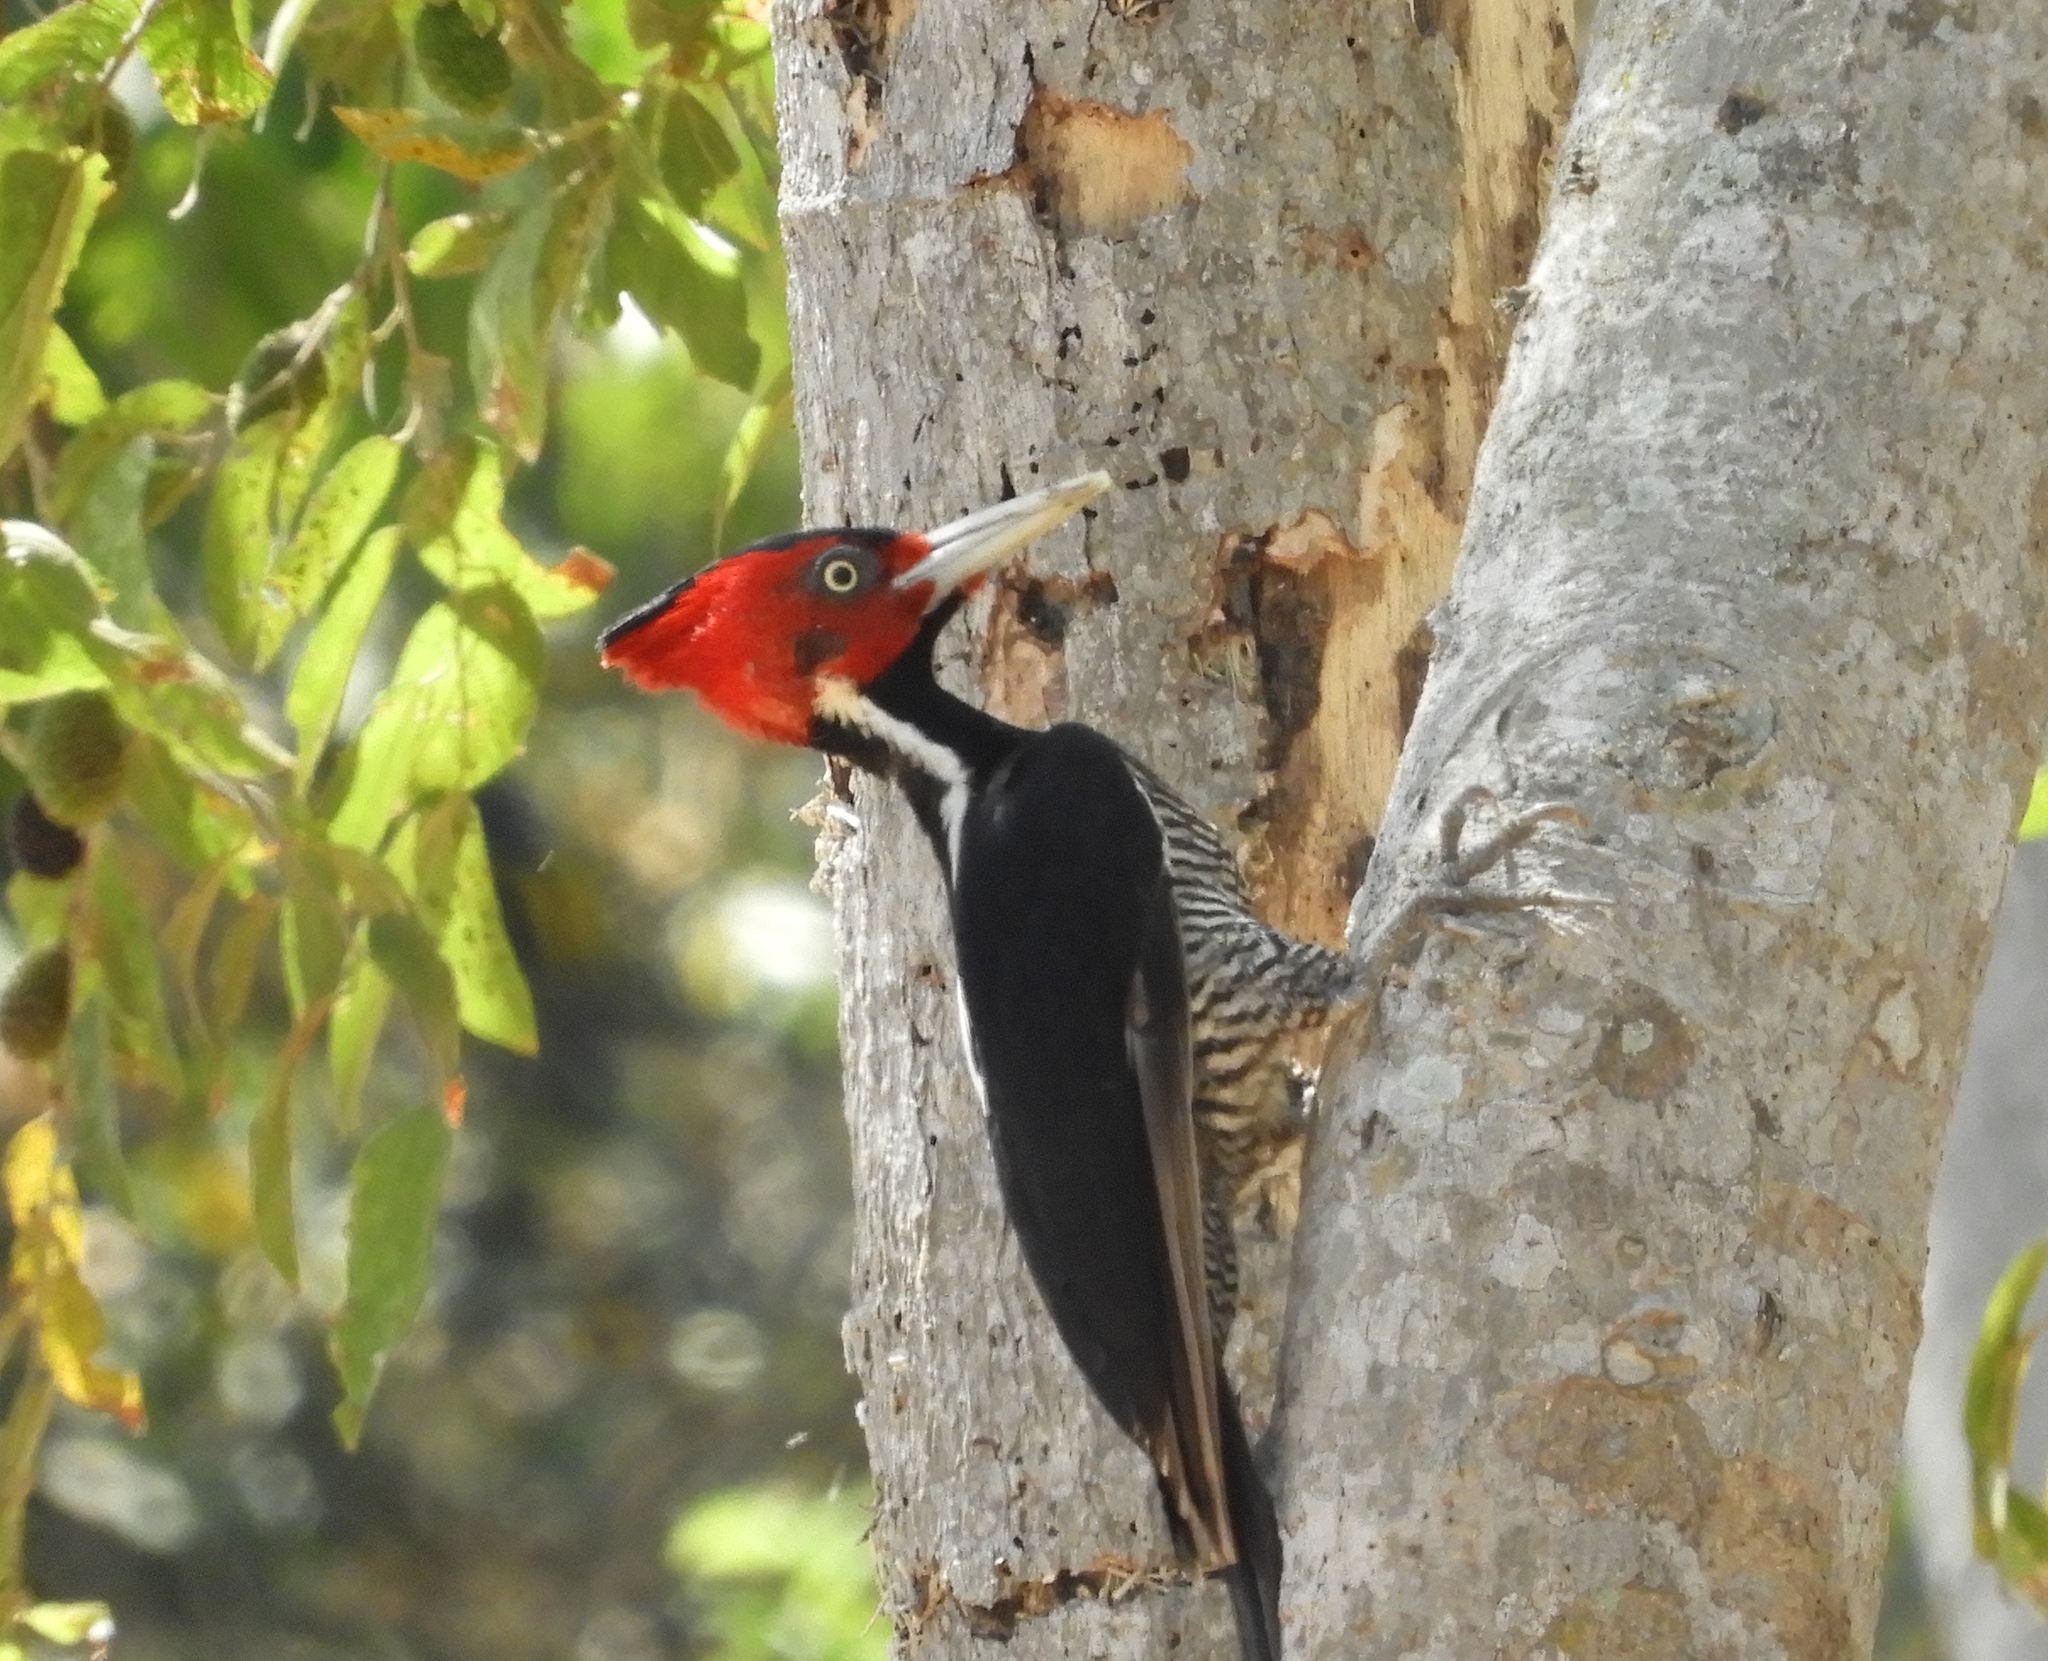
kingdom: Animalia
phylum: Chordata
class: Aves
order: Piciformes
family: Picidae
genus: Campephilus
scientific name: Campephilus guatemalensis
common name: Pale-billed woodpecker
